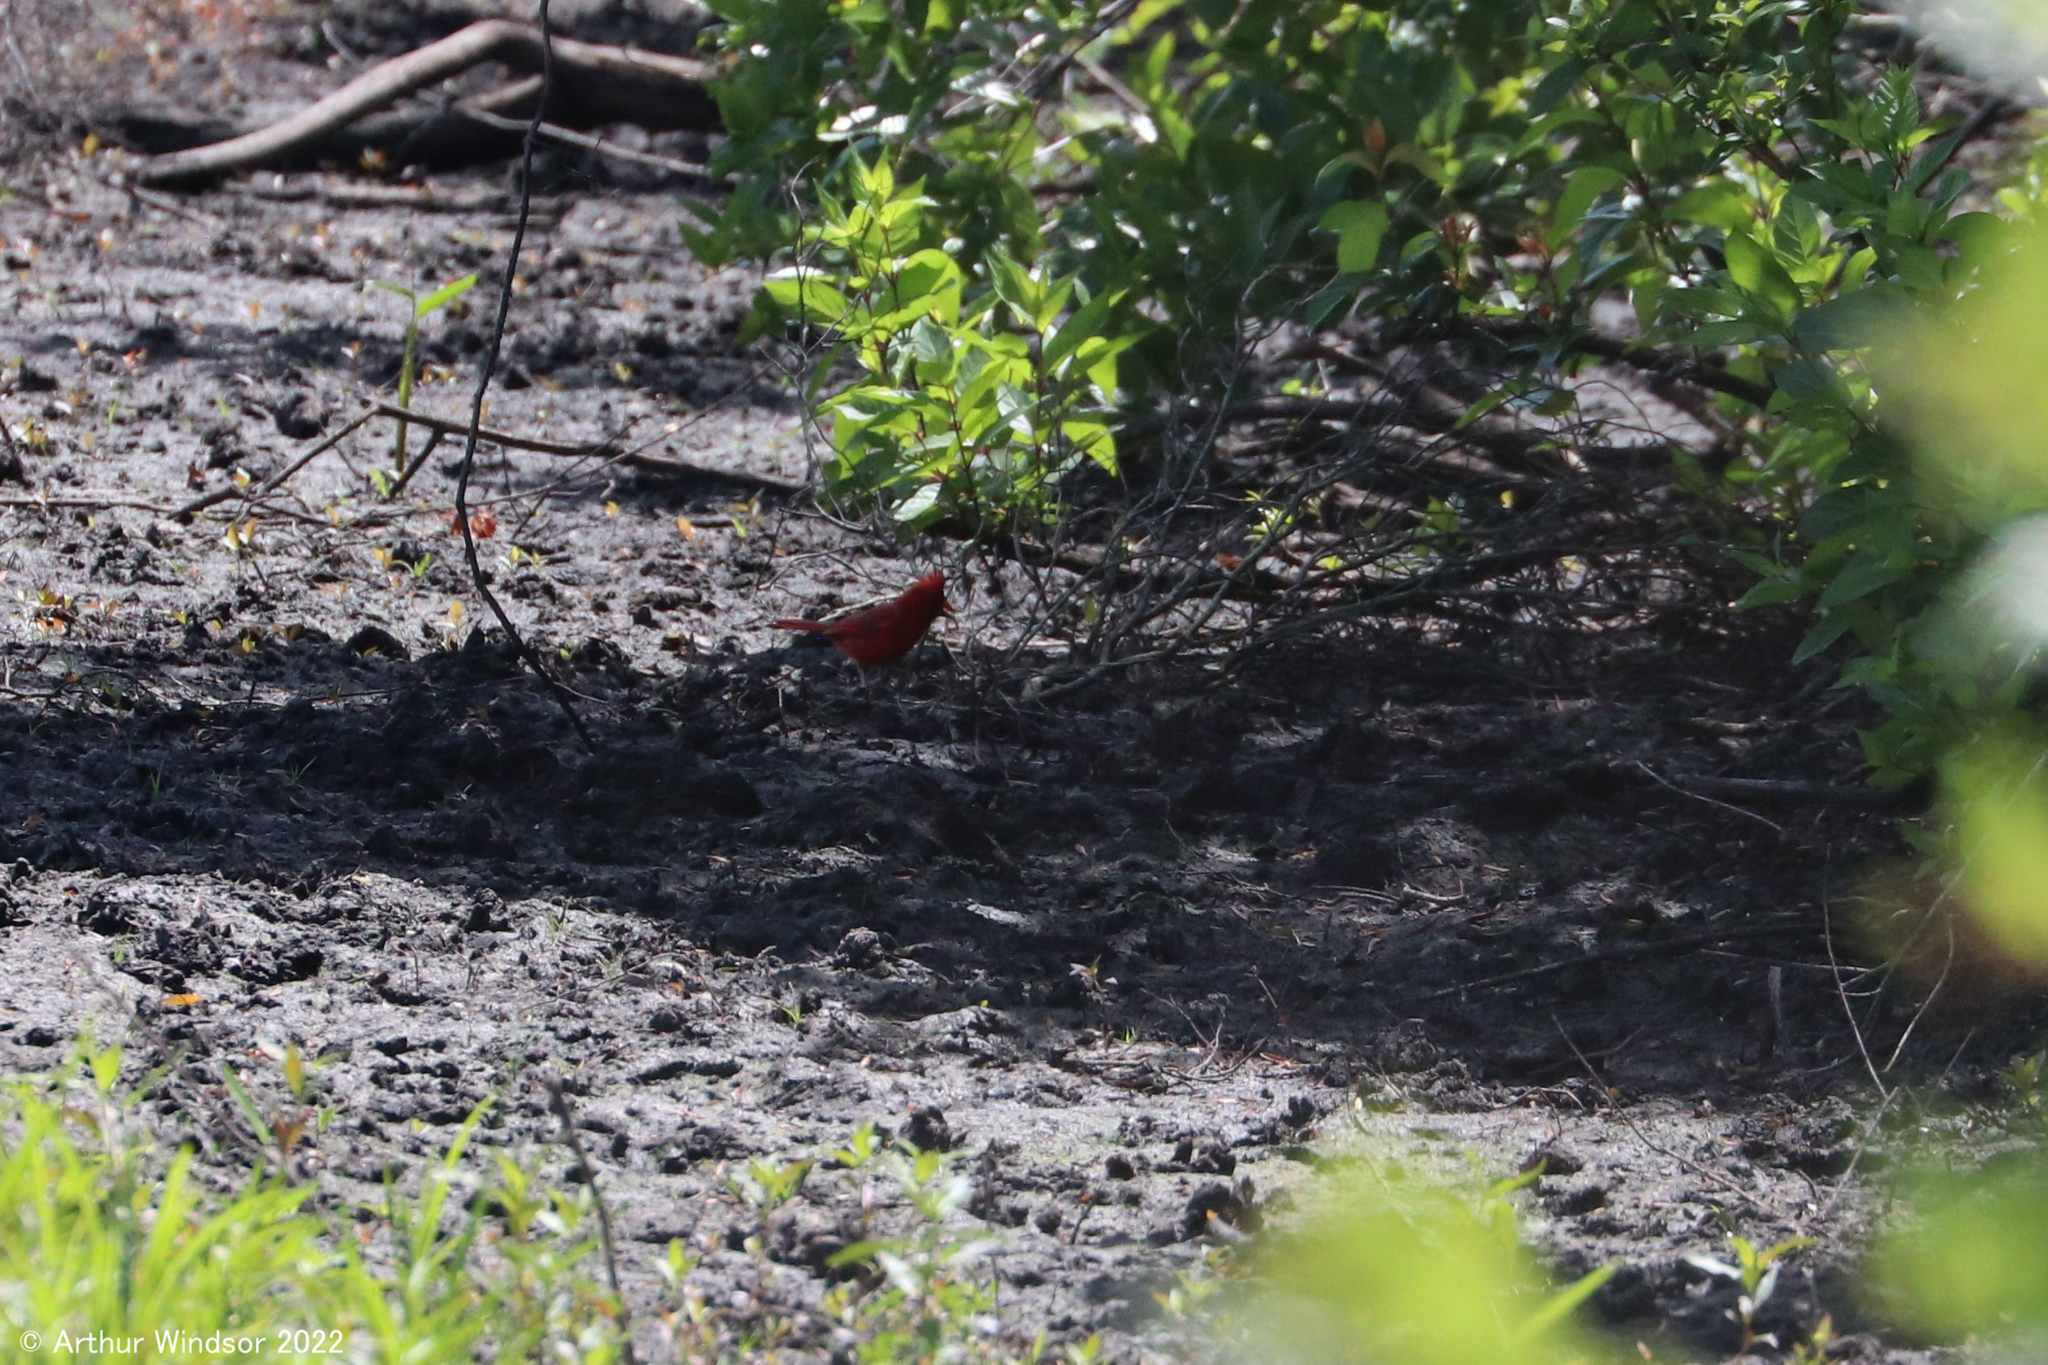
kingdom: Animalia
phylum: Chordata
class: Aves
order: Passeriformes
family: Cardinalidae
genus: Cardinalis
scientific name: Cardinalis cardinalis
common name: Northern cardinal
